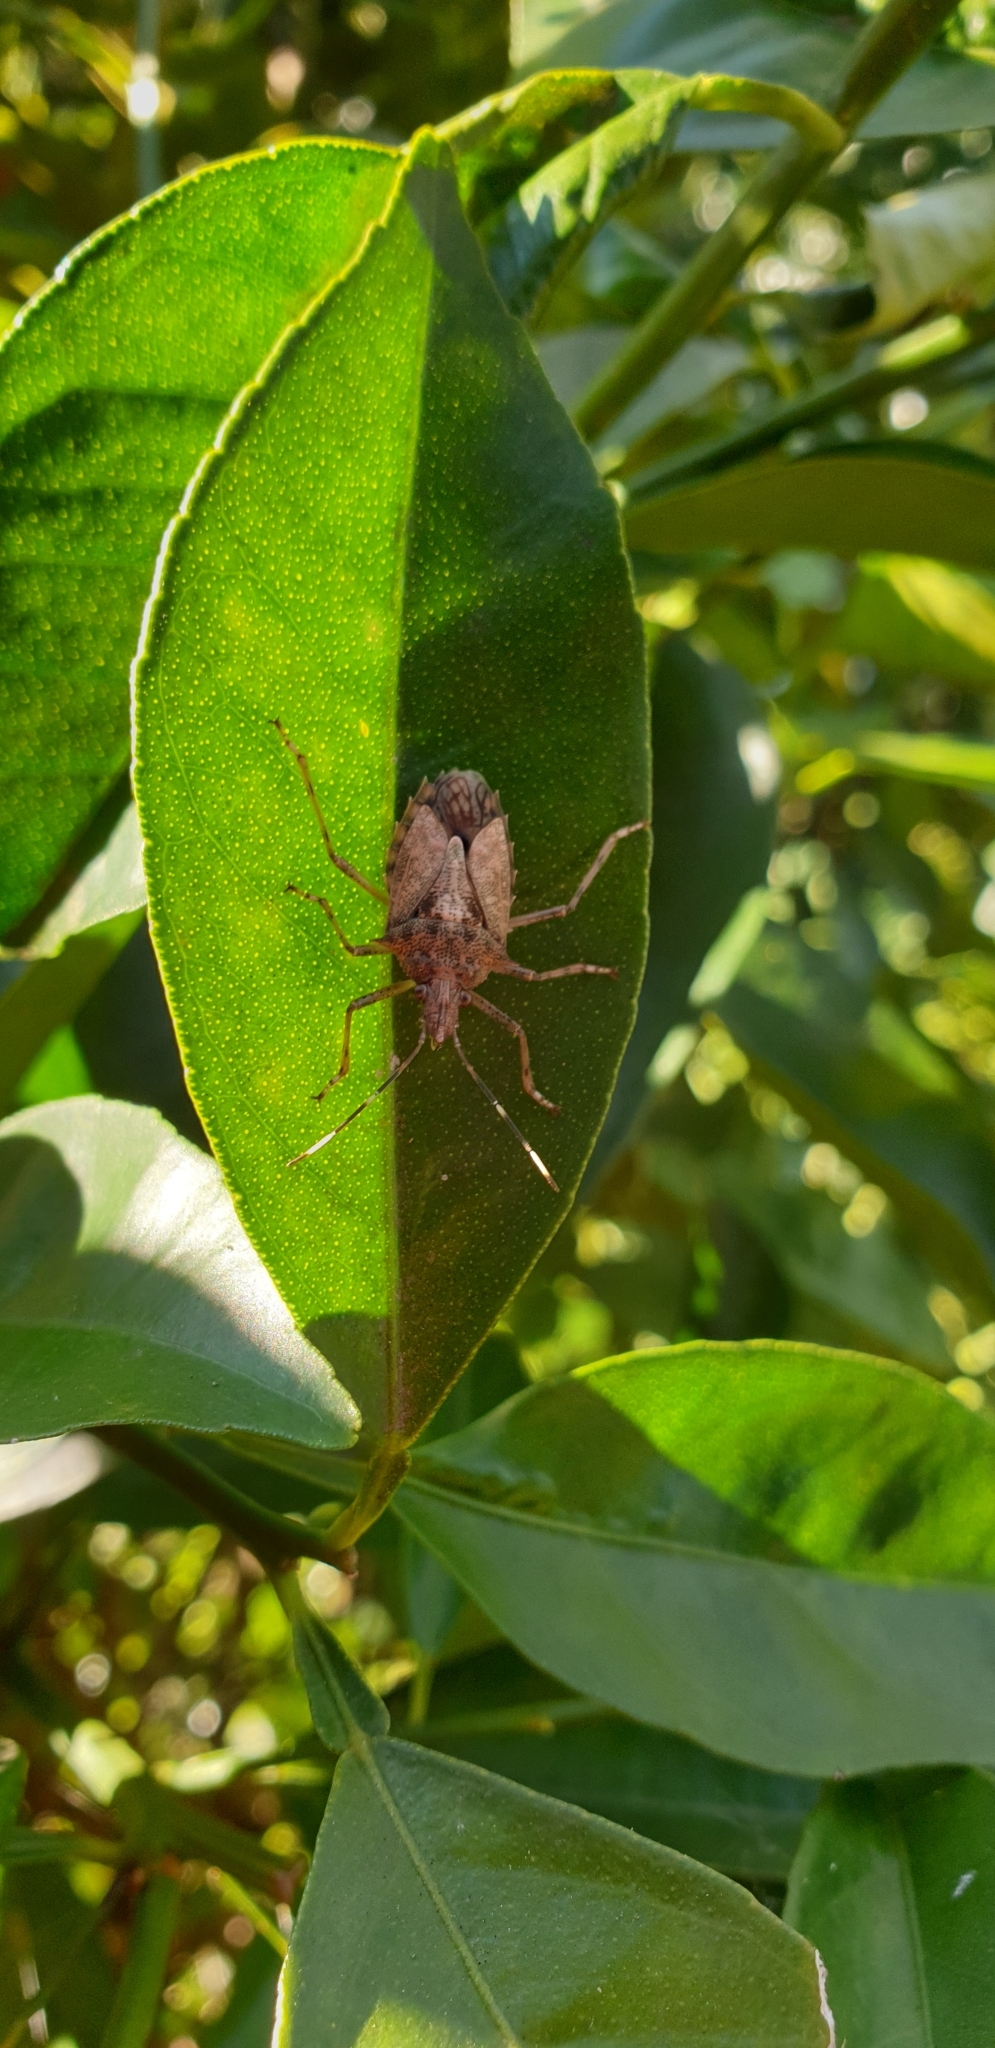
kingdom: Animalia
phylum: Arthropoda
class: Insecta
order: Hemiptera
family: Pentatomidae
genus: Bromocoris
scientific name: Bromocoris
